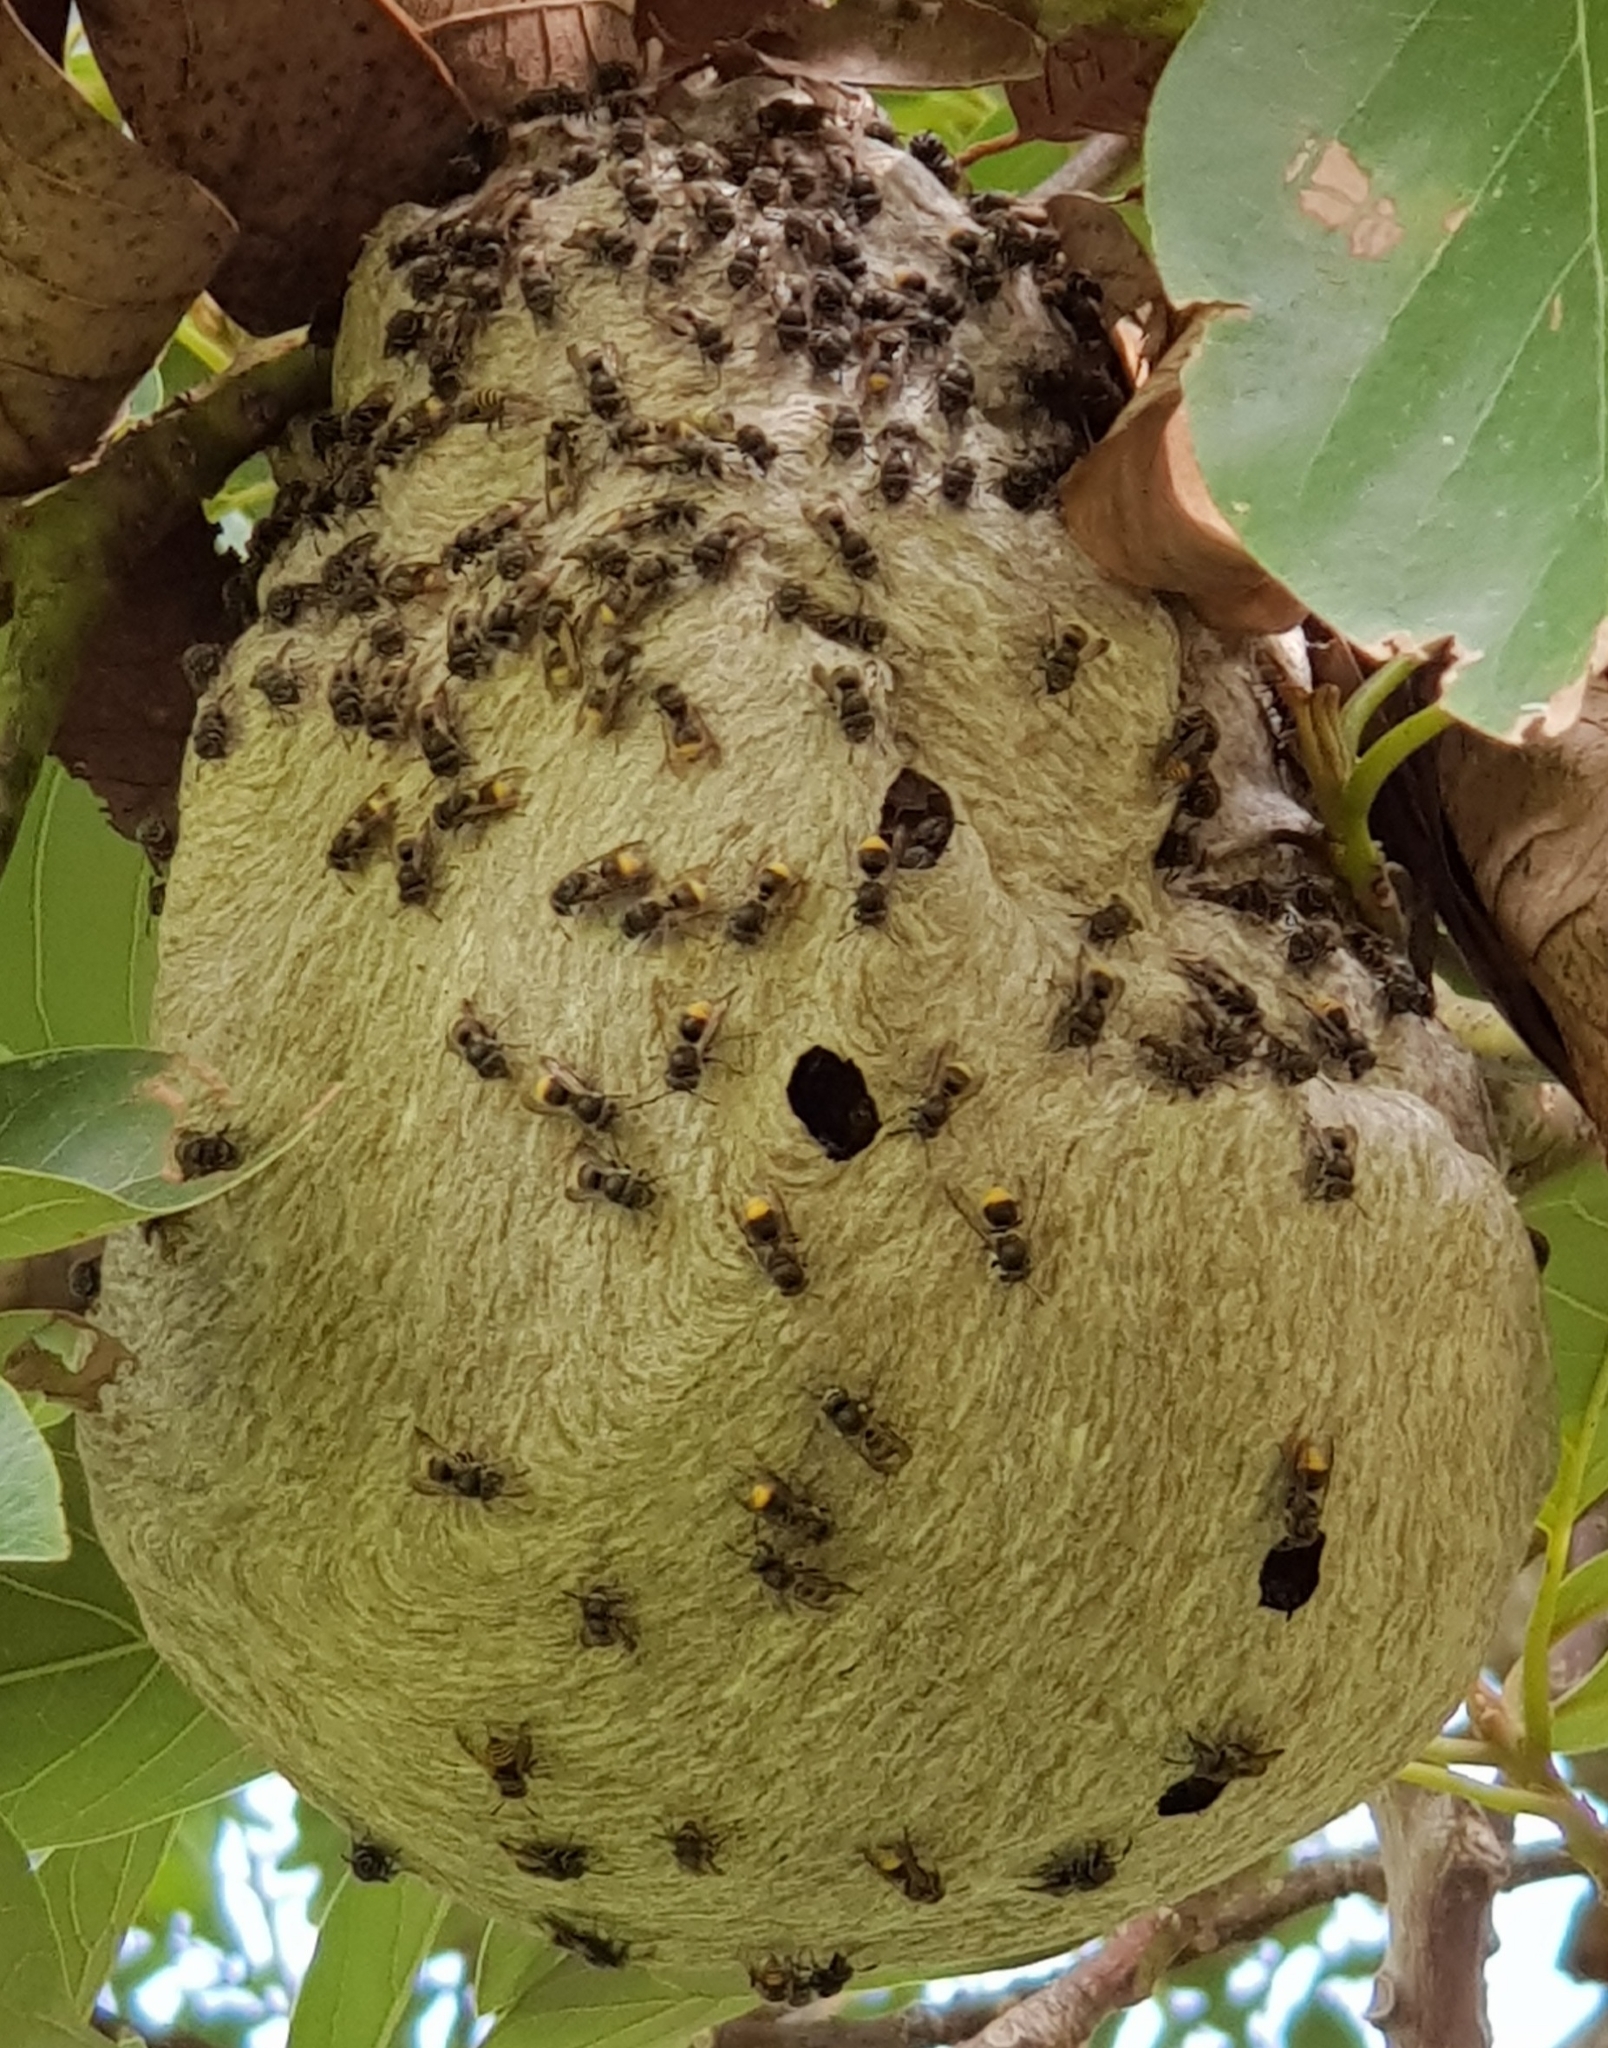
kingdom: Animalia
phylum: Arthropoda
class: Insecta
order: Hymenoptera
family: Vespidae
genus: Brachygastra
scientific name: Brachygastra azteca
